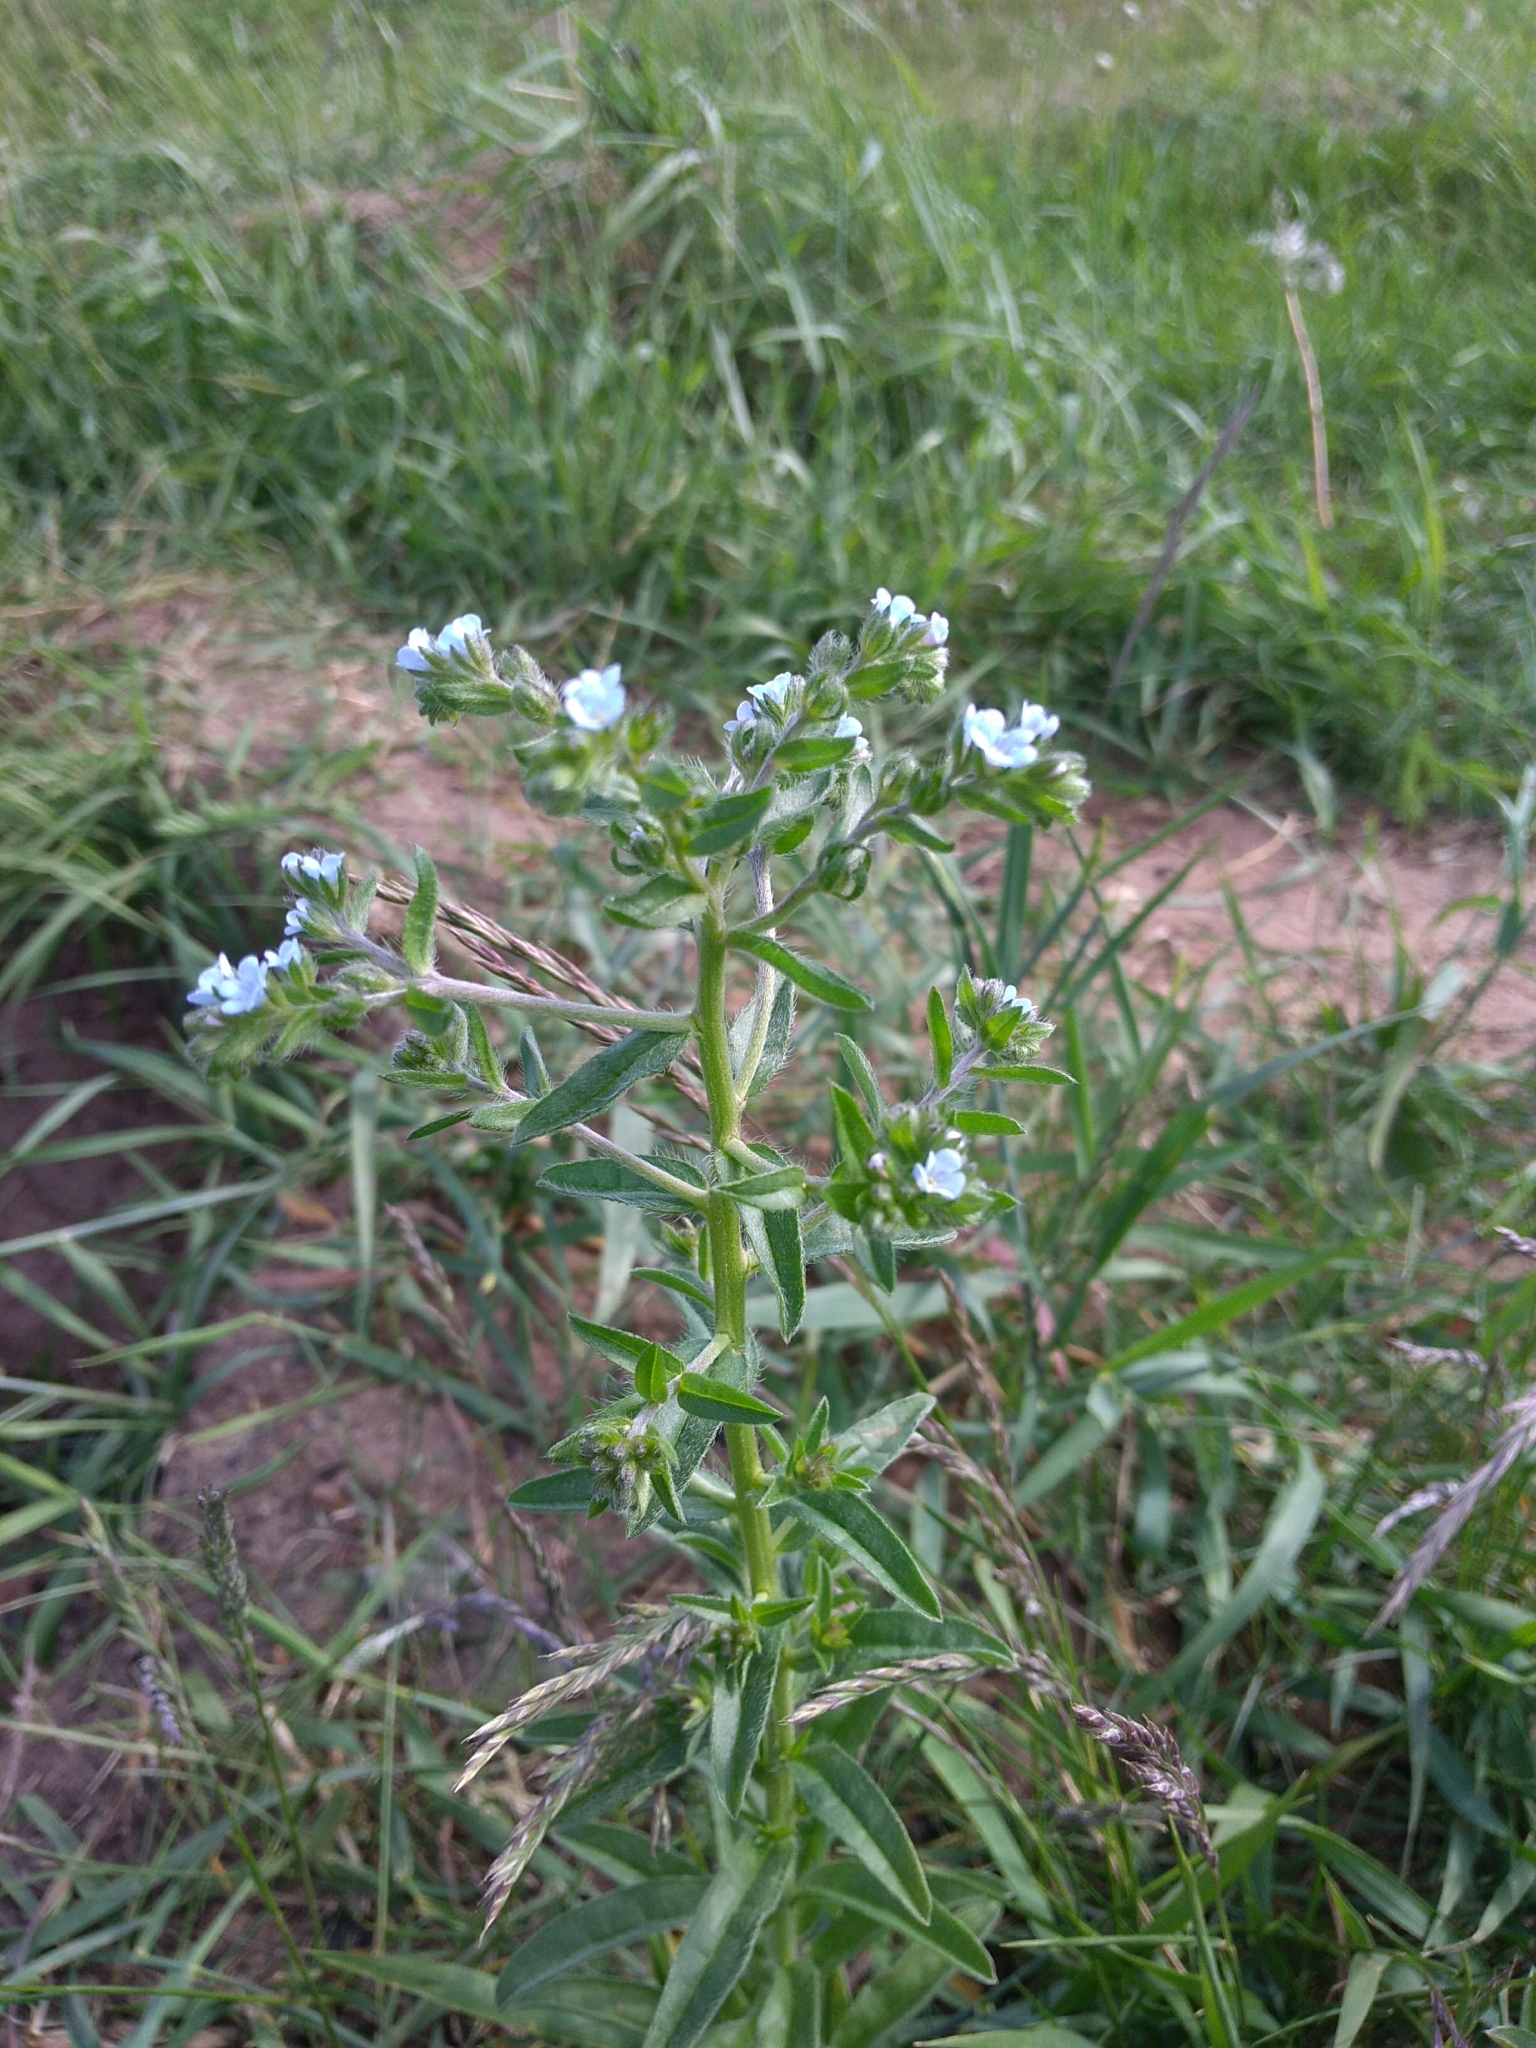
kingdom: Plantae
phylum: Tracheophyta
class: Magnoliopsida
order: Boraginales
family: Boraginaceae
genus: Lappula
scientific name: Lappula squarrosa
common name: European stickseed
